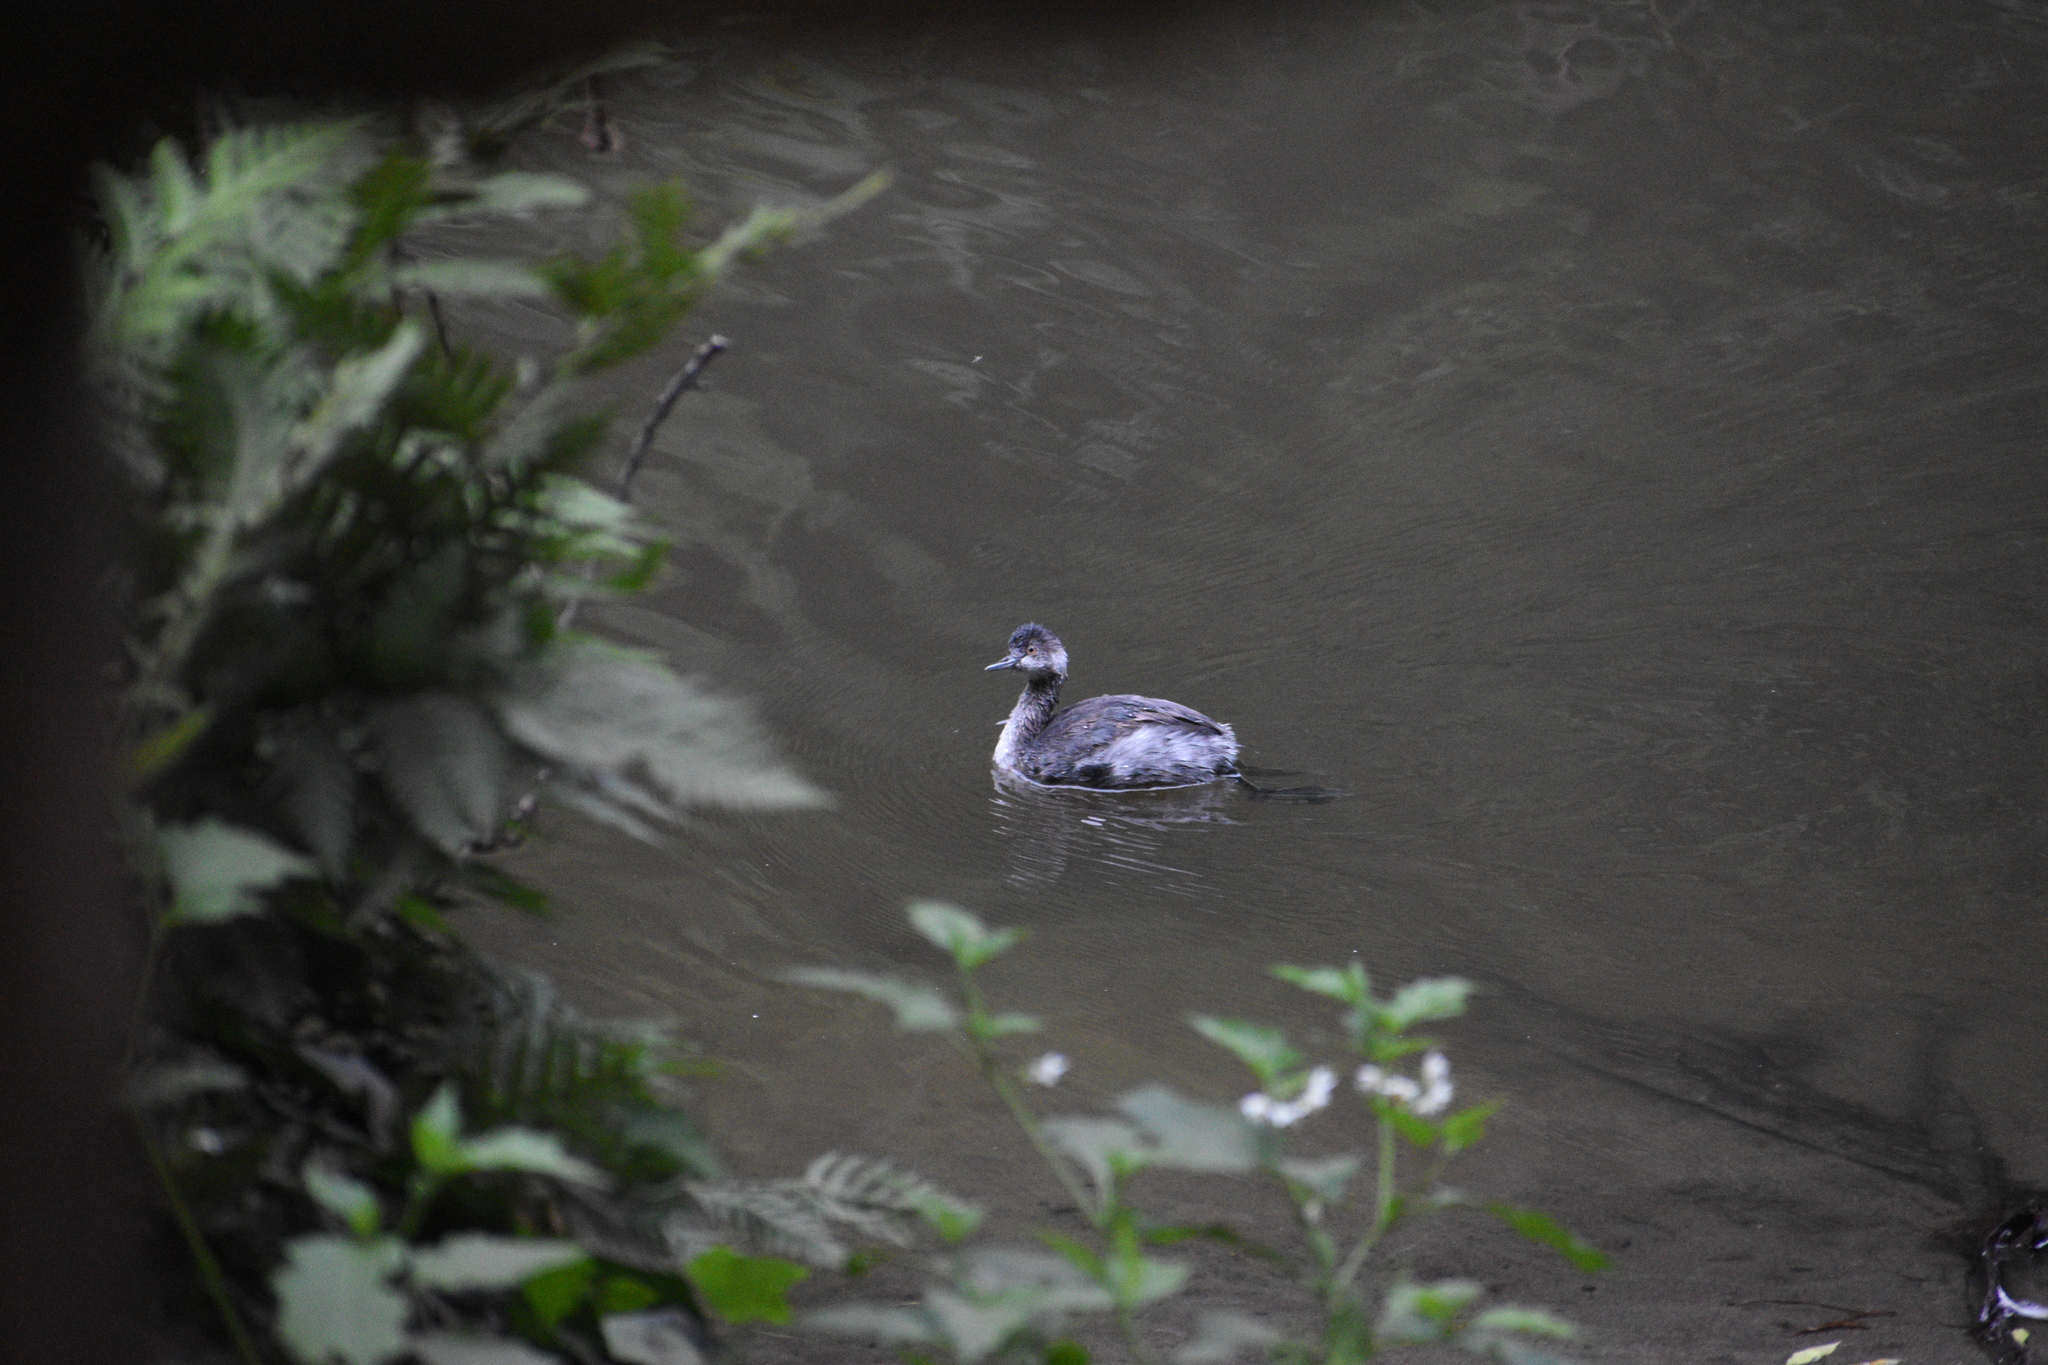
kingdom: Animalia
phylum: Chordata
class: Aves
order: Podicipediformes
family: Podicipedidae
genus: Podiceps
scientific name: Podiceps nigricollis
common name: Black-necked grebe
